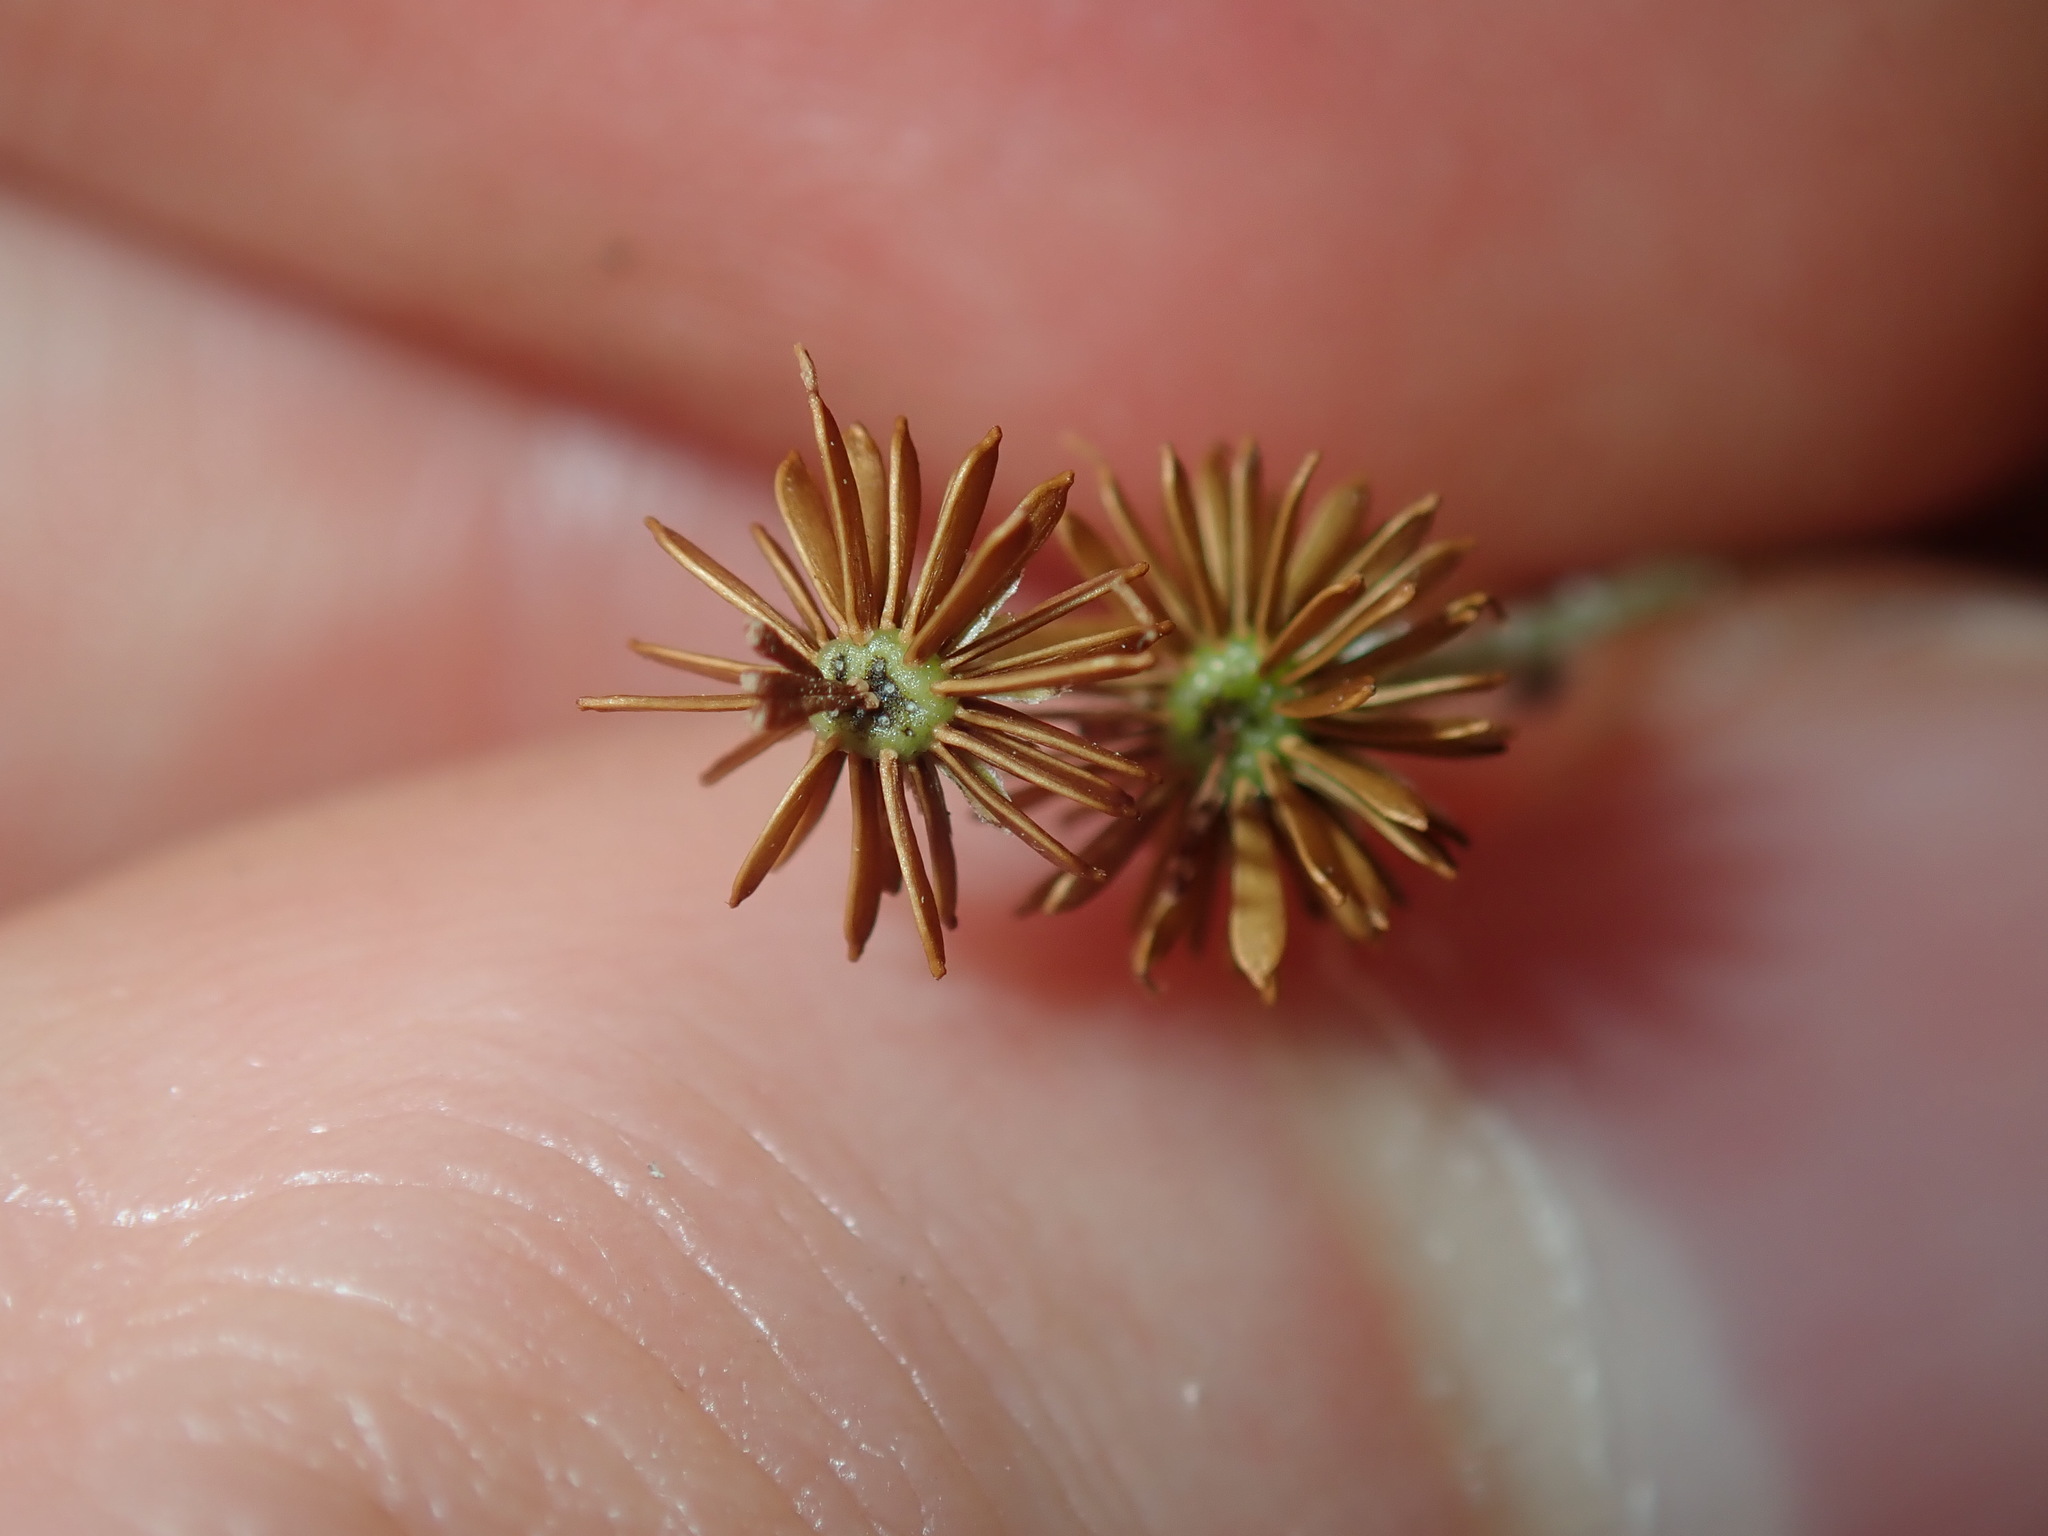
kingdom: Plantae
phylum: Tracheophyta
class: Magnoliopsida
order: Asterales
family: Asteraceae
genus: Solenogyne
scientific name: Solenogyne bellioides
